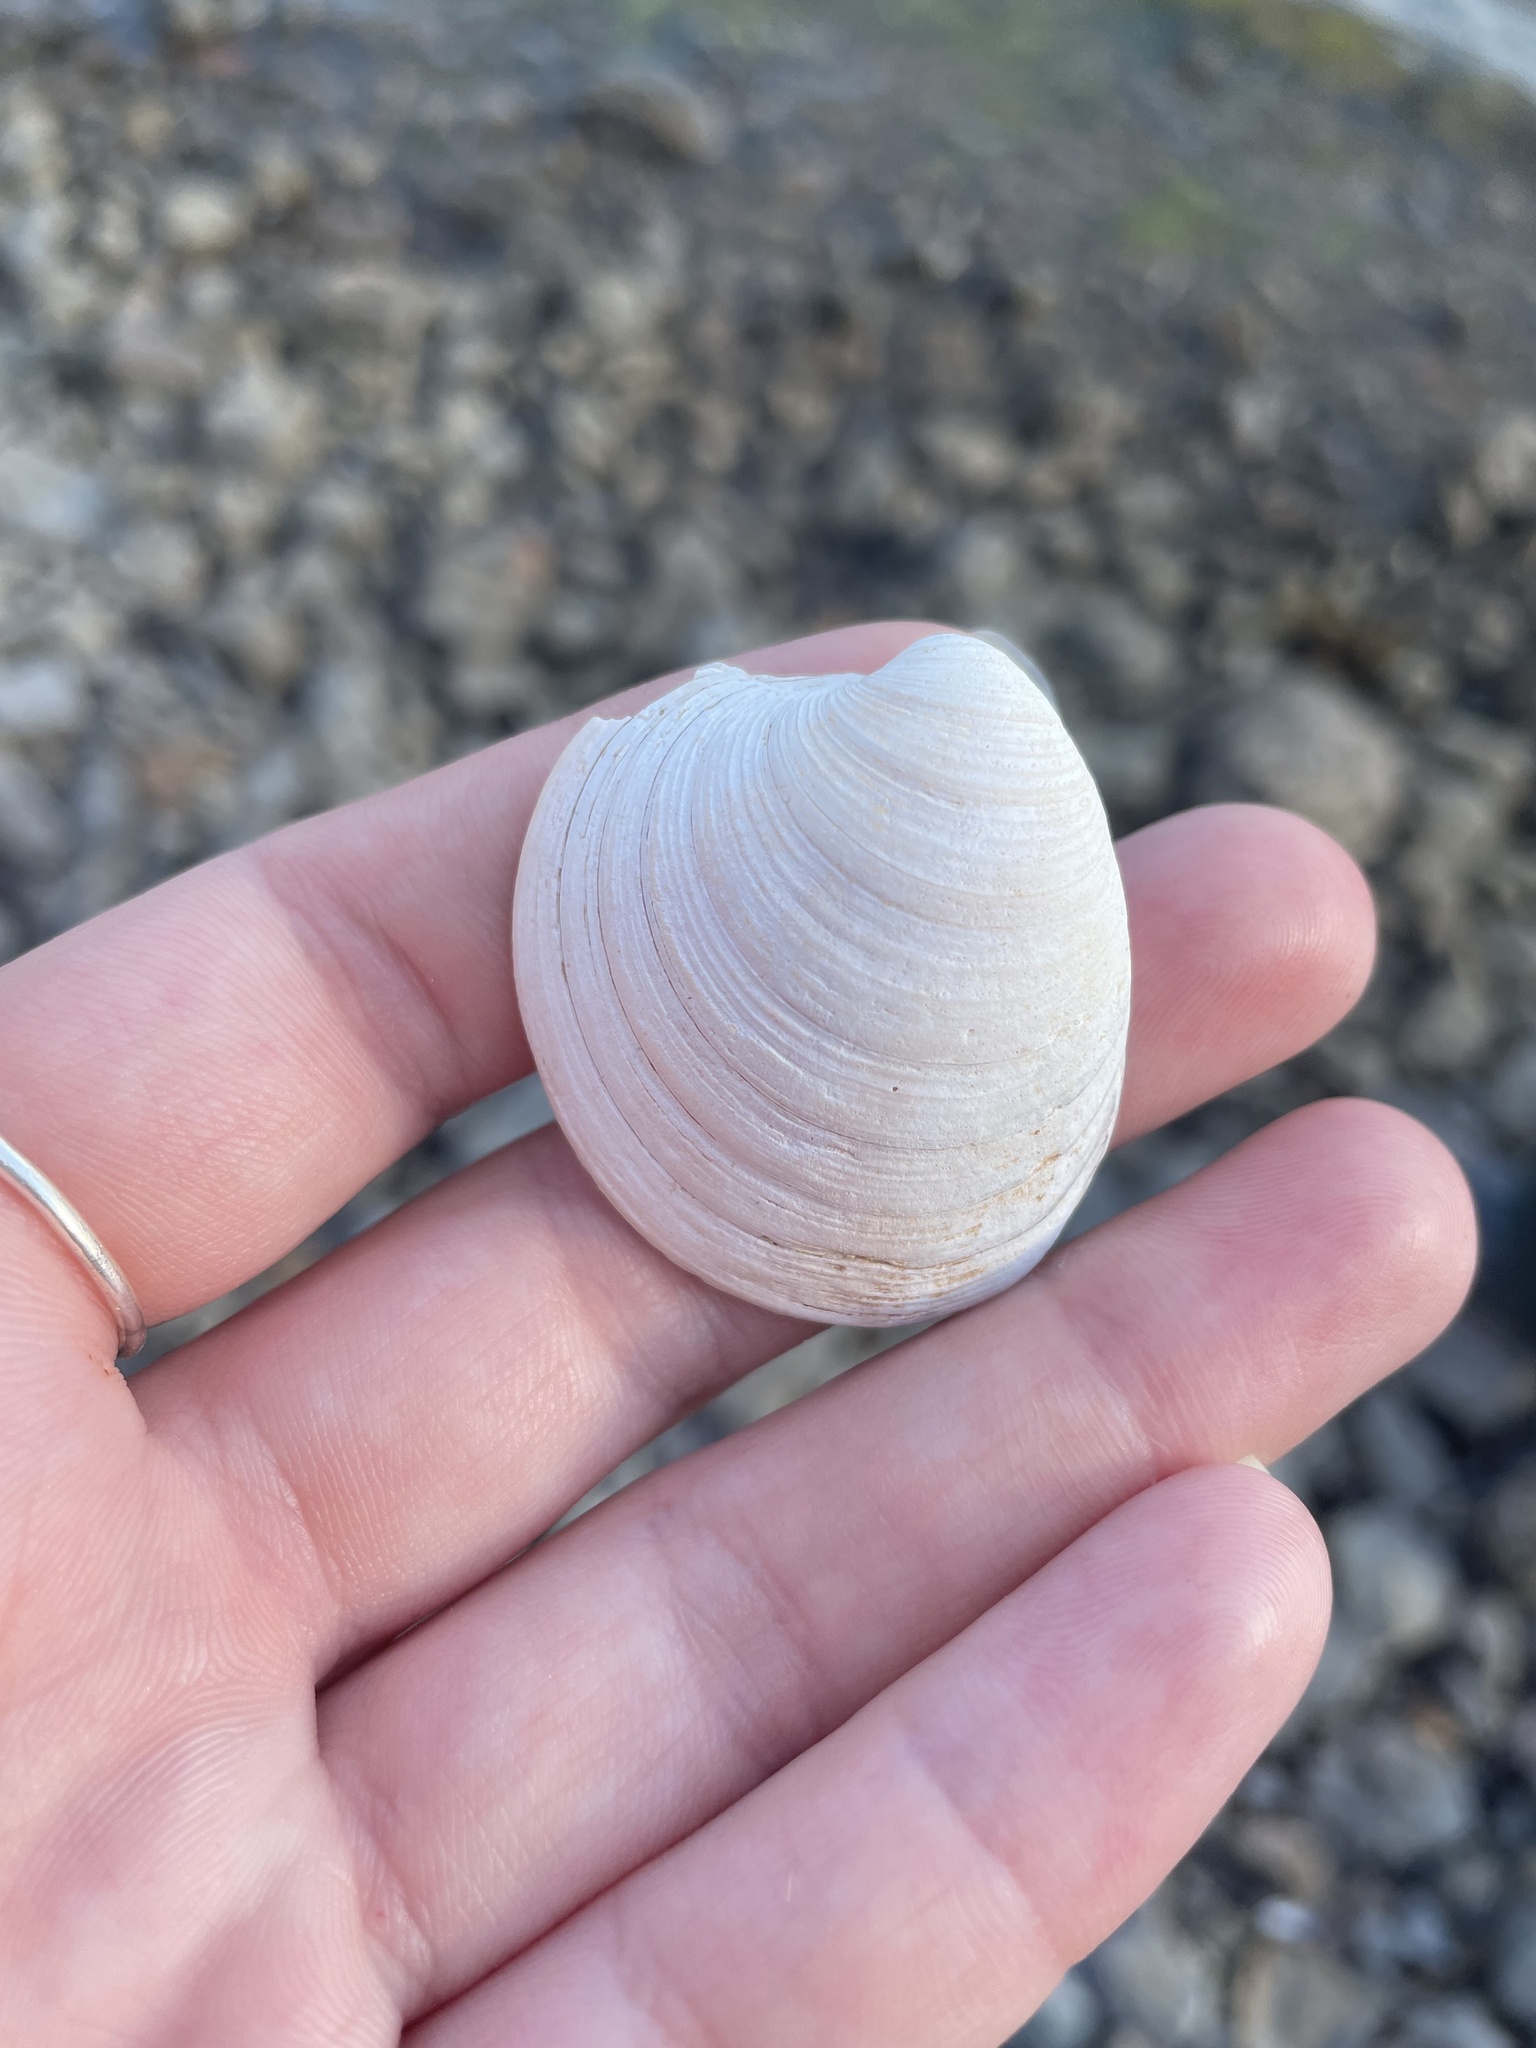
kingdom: Animalia
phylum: Mollusca
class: Bivalvia
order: Venerida
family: Veneridae
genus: Mercenaria
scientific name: Mercenaria mercenaria
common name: American hard-shelled clam
